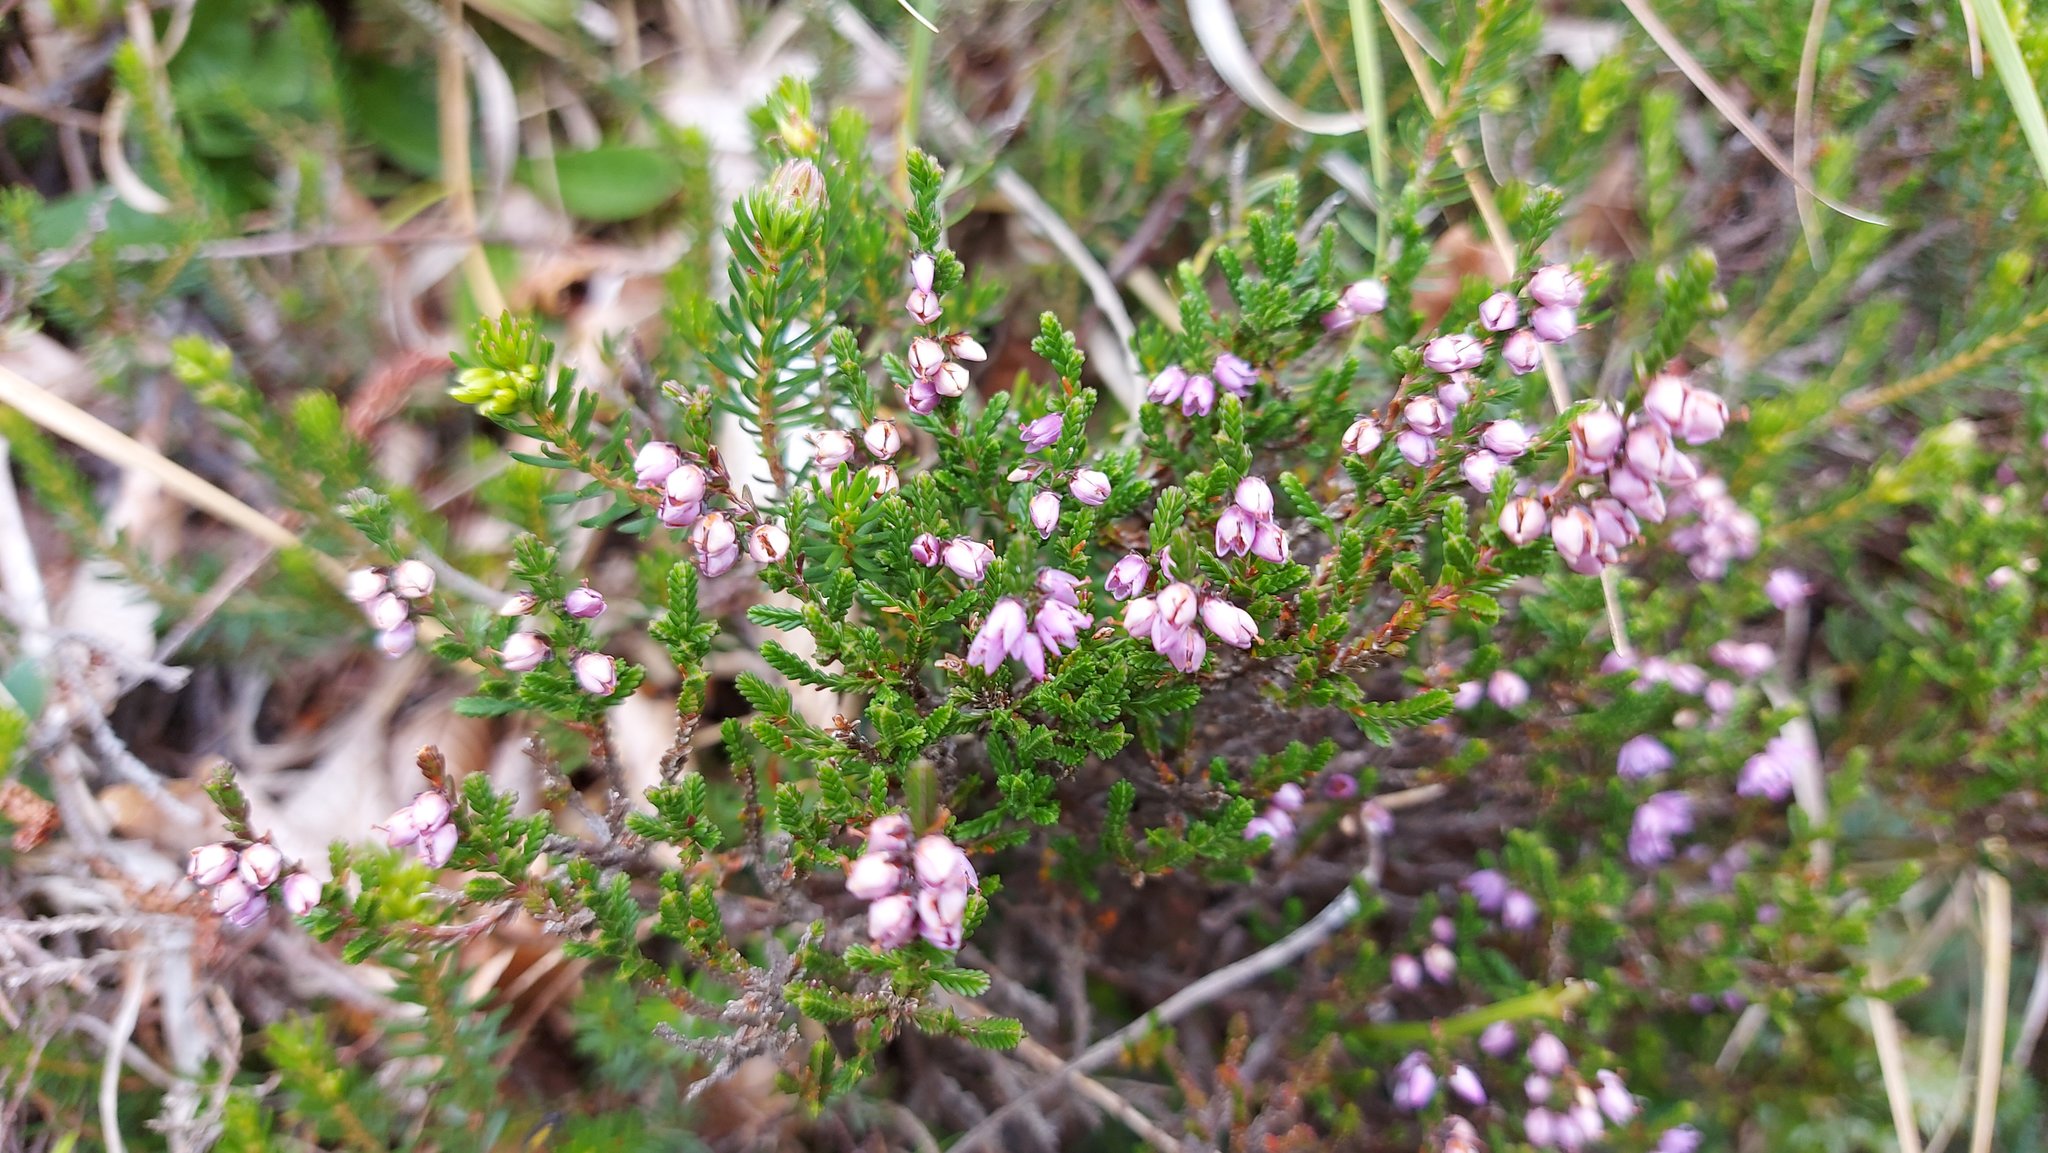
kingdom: Plantae
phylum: Tracheophyta
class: Magnoliopsida
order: Ericales
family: Ericaceae
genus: Calluna
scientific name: Calluna vulgaris
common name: Heather
